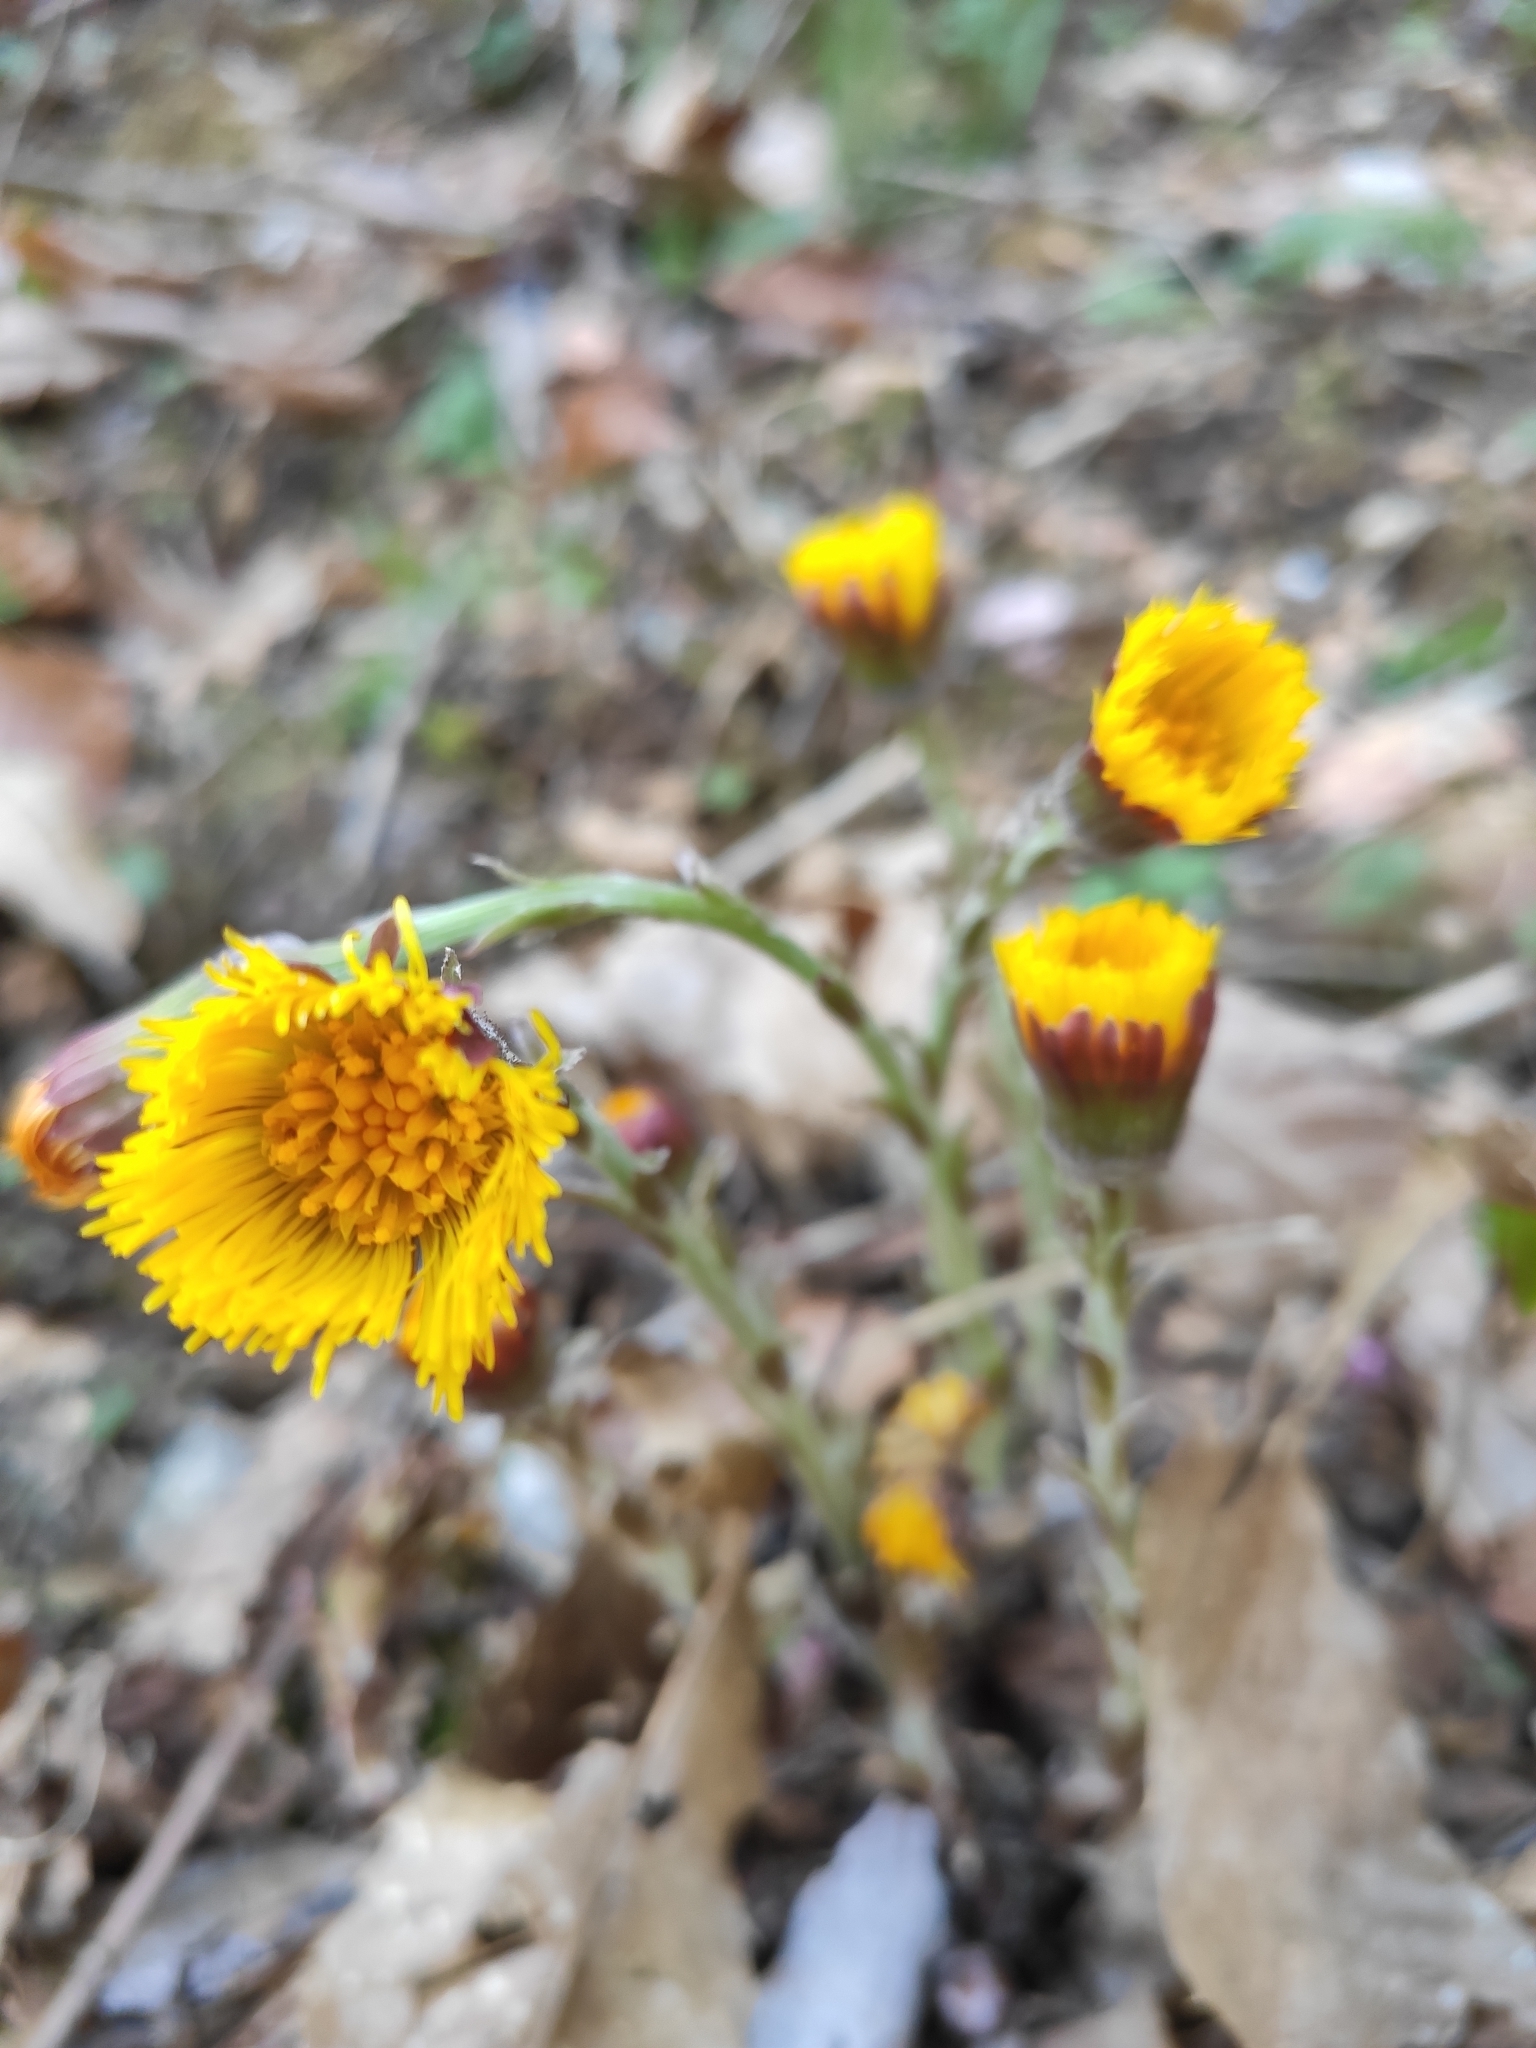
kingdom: Plantae
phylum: Tracheophyta
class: Magnoliopsida
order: Asterales
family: Asteraceae
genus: Tussilago
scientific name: Tussilago farfara
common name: Coltsfoot
